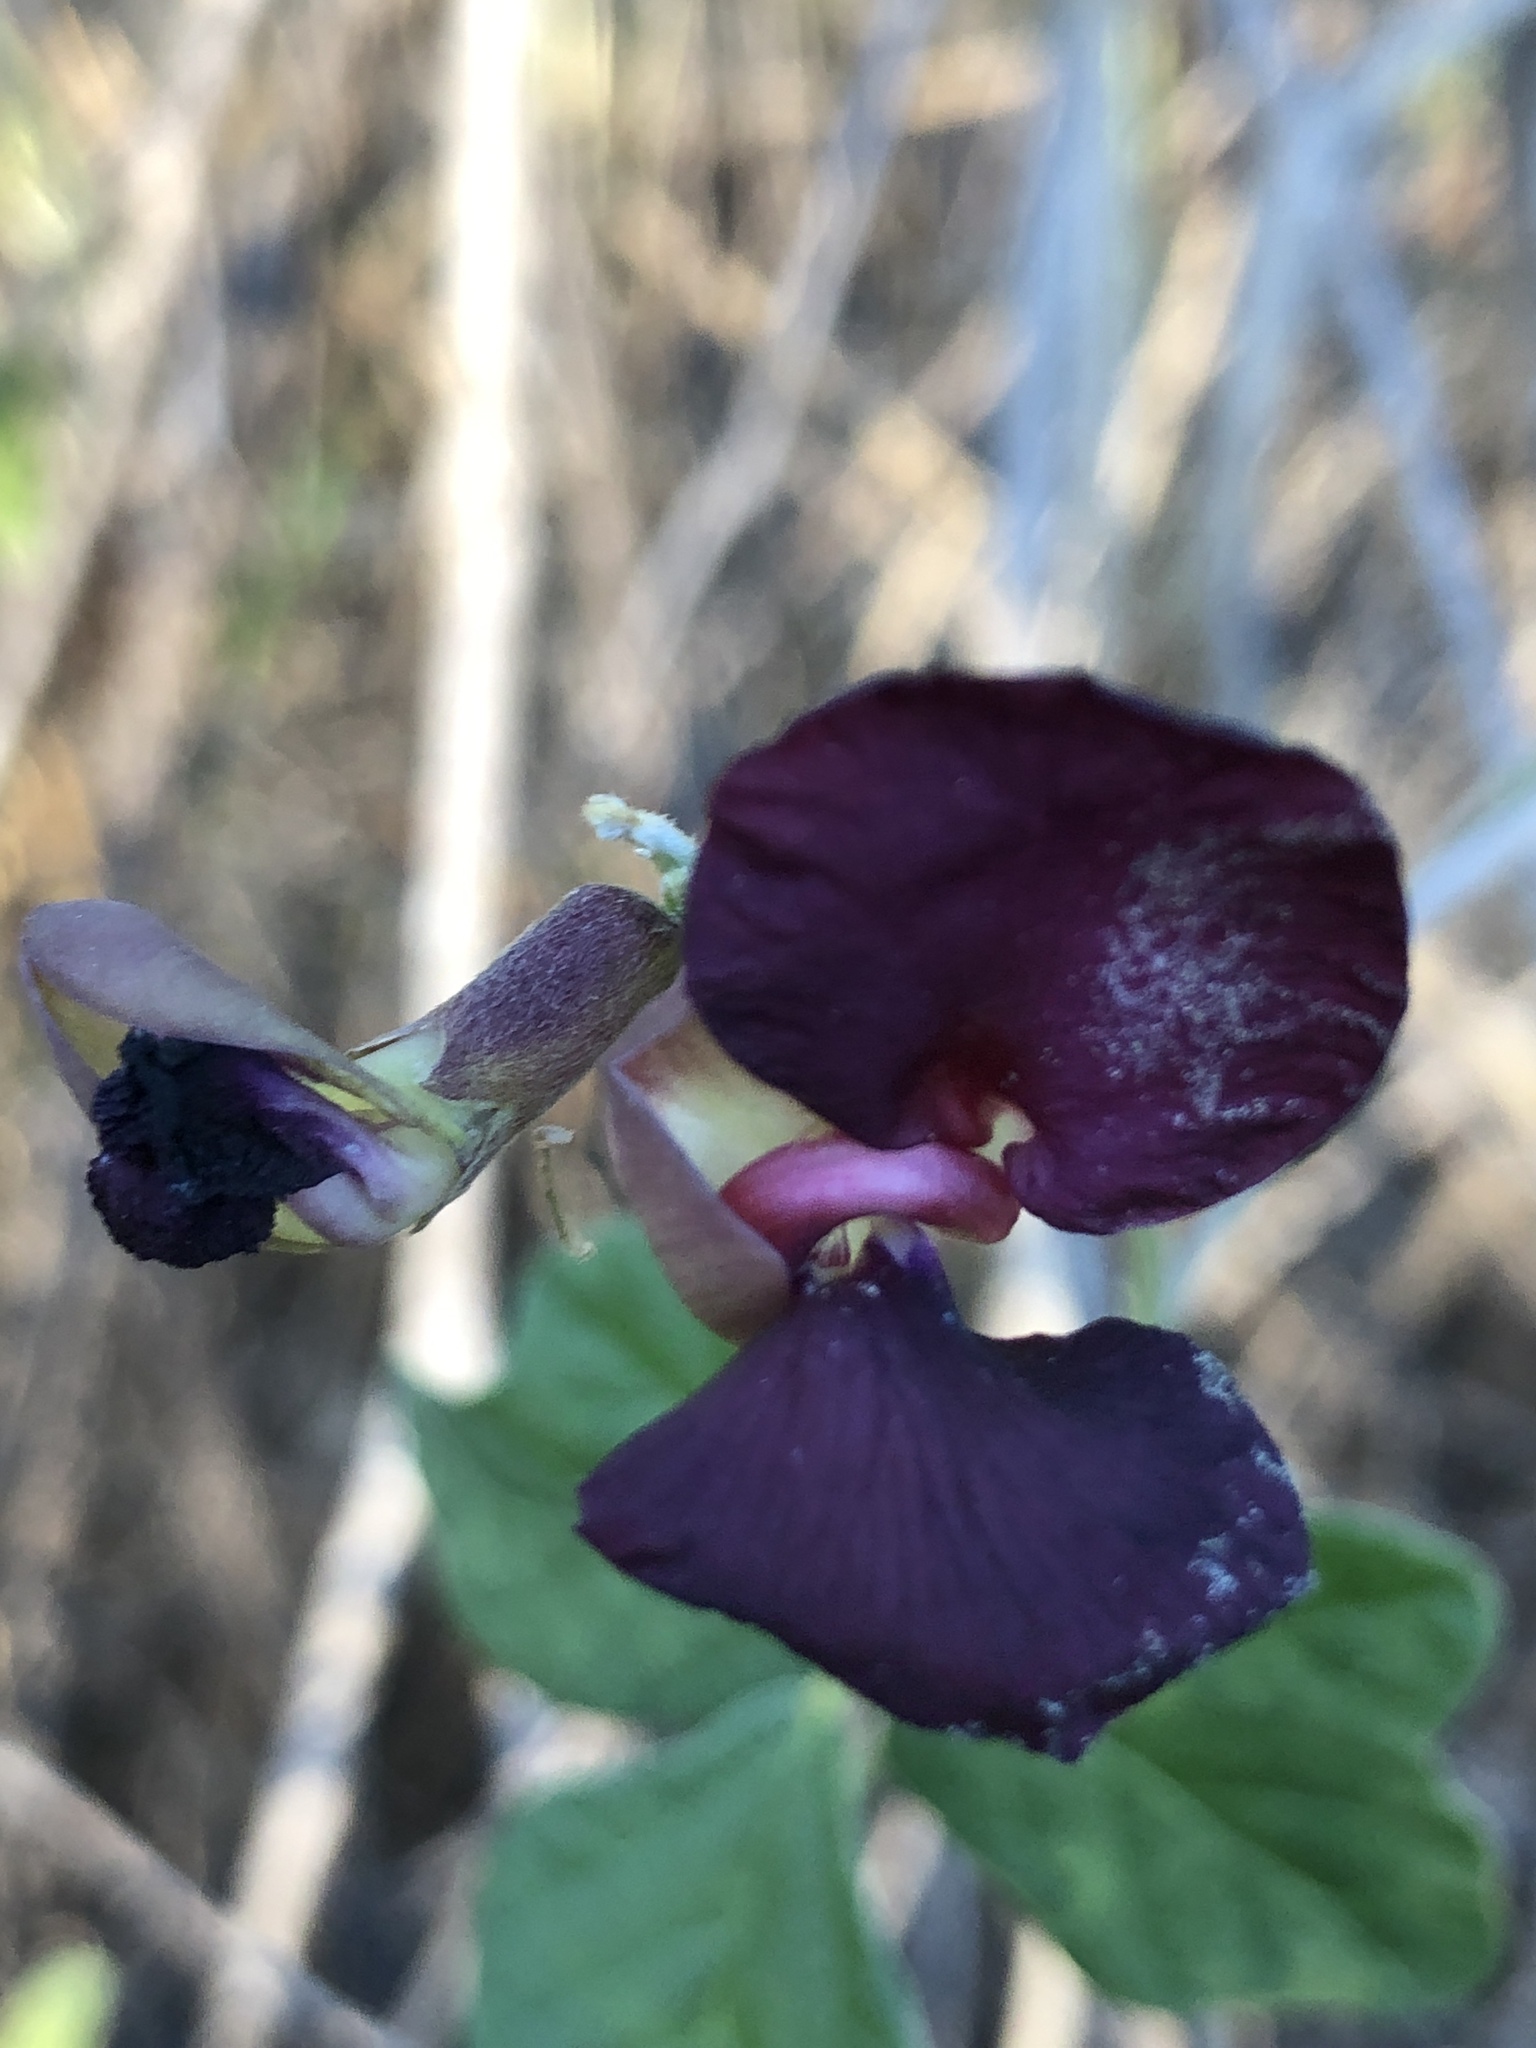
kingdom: Plantae
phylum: Tracheophyta
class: Magnoliopsida
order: Fabales
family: Fabaceae
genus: Macroptilium
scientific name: Macroptilium atropurpureum
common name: Purple bushbean
